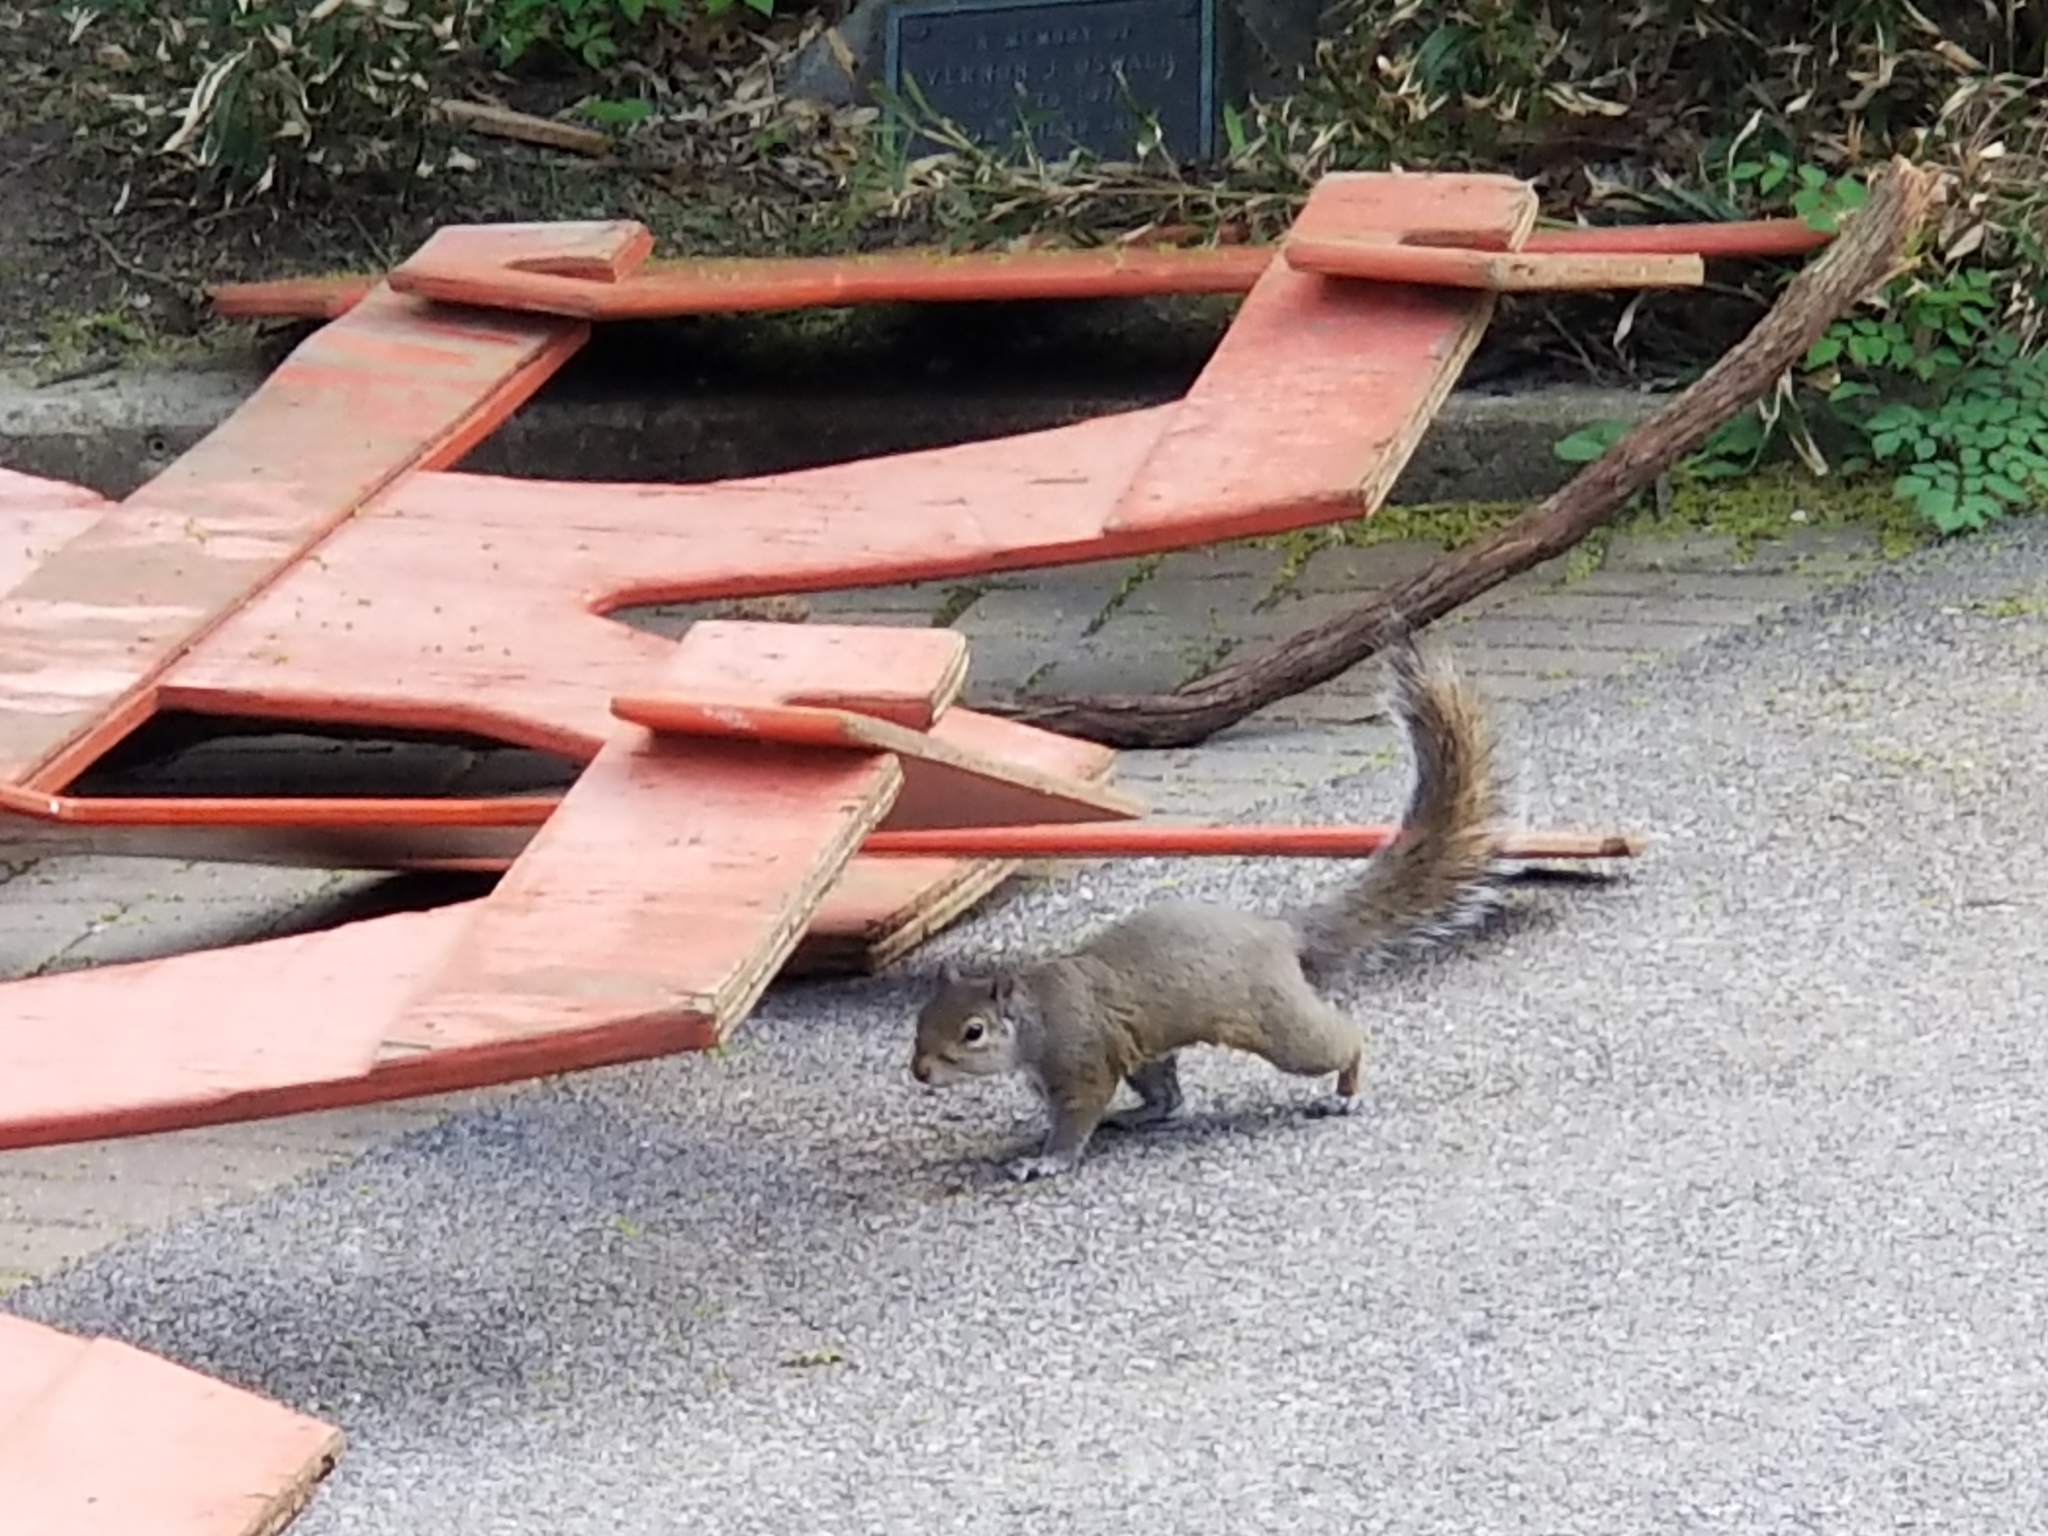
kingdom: Animalia
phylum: Chordata
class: Mammalia
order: Rodentia
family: Sciuridae
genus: Sciurus
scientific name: Sciurus carolinensis
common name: Eastern gray squirrel
